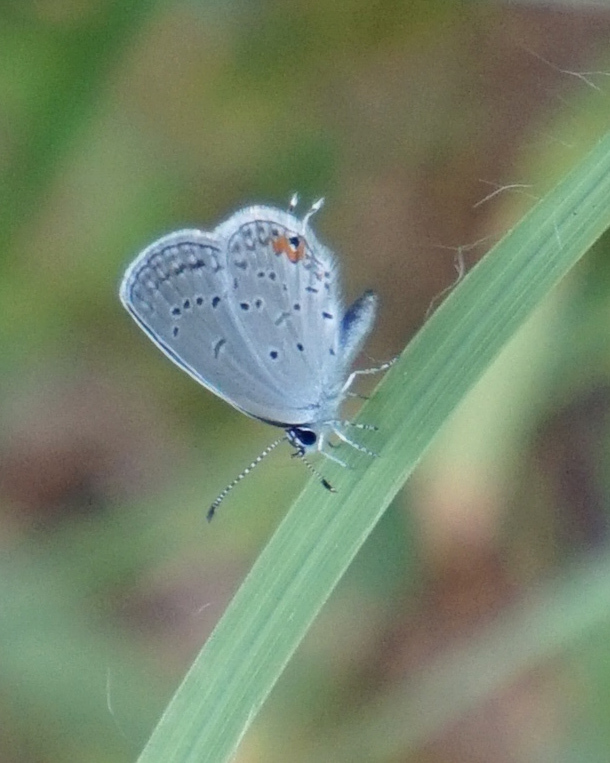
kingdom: Animalia
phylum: Arthropoda
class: Insecta
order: Lepidoptera
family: Lycaenidae
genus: Elkalyce
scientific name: Elkalyce comyntas
